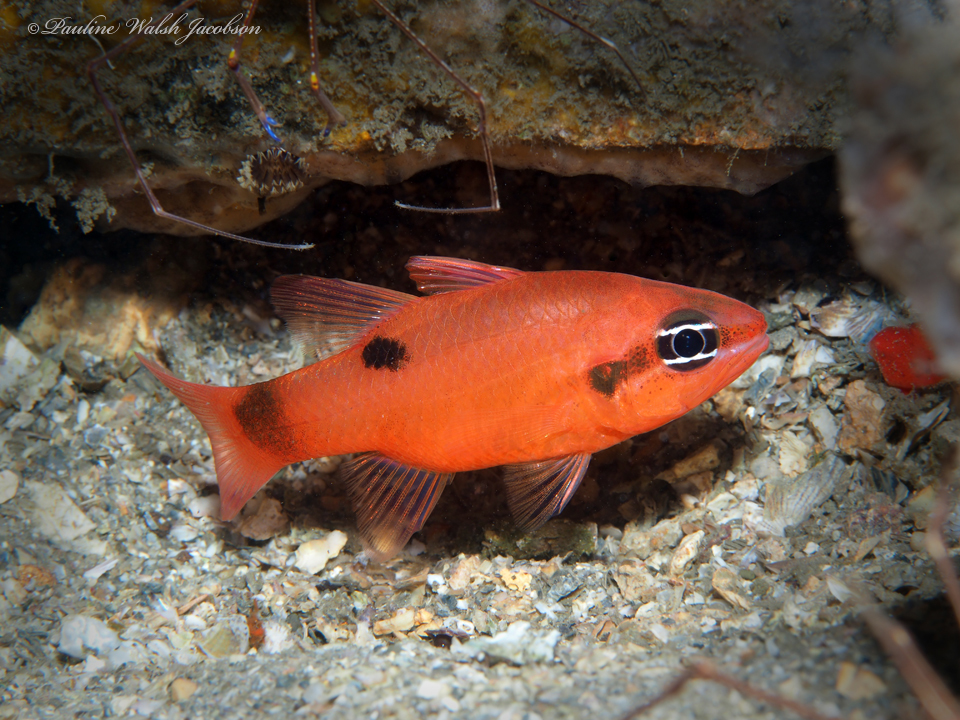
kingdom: Animalia
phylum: Chordata
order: Perciformes
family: Apogonidae
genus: Apogon
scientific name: Apogon maculatus
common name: Flamefish
